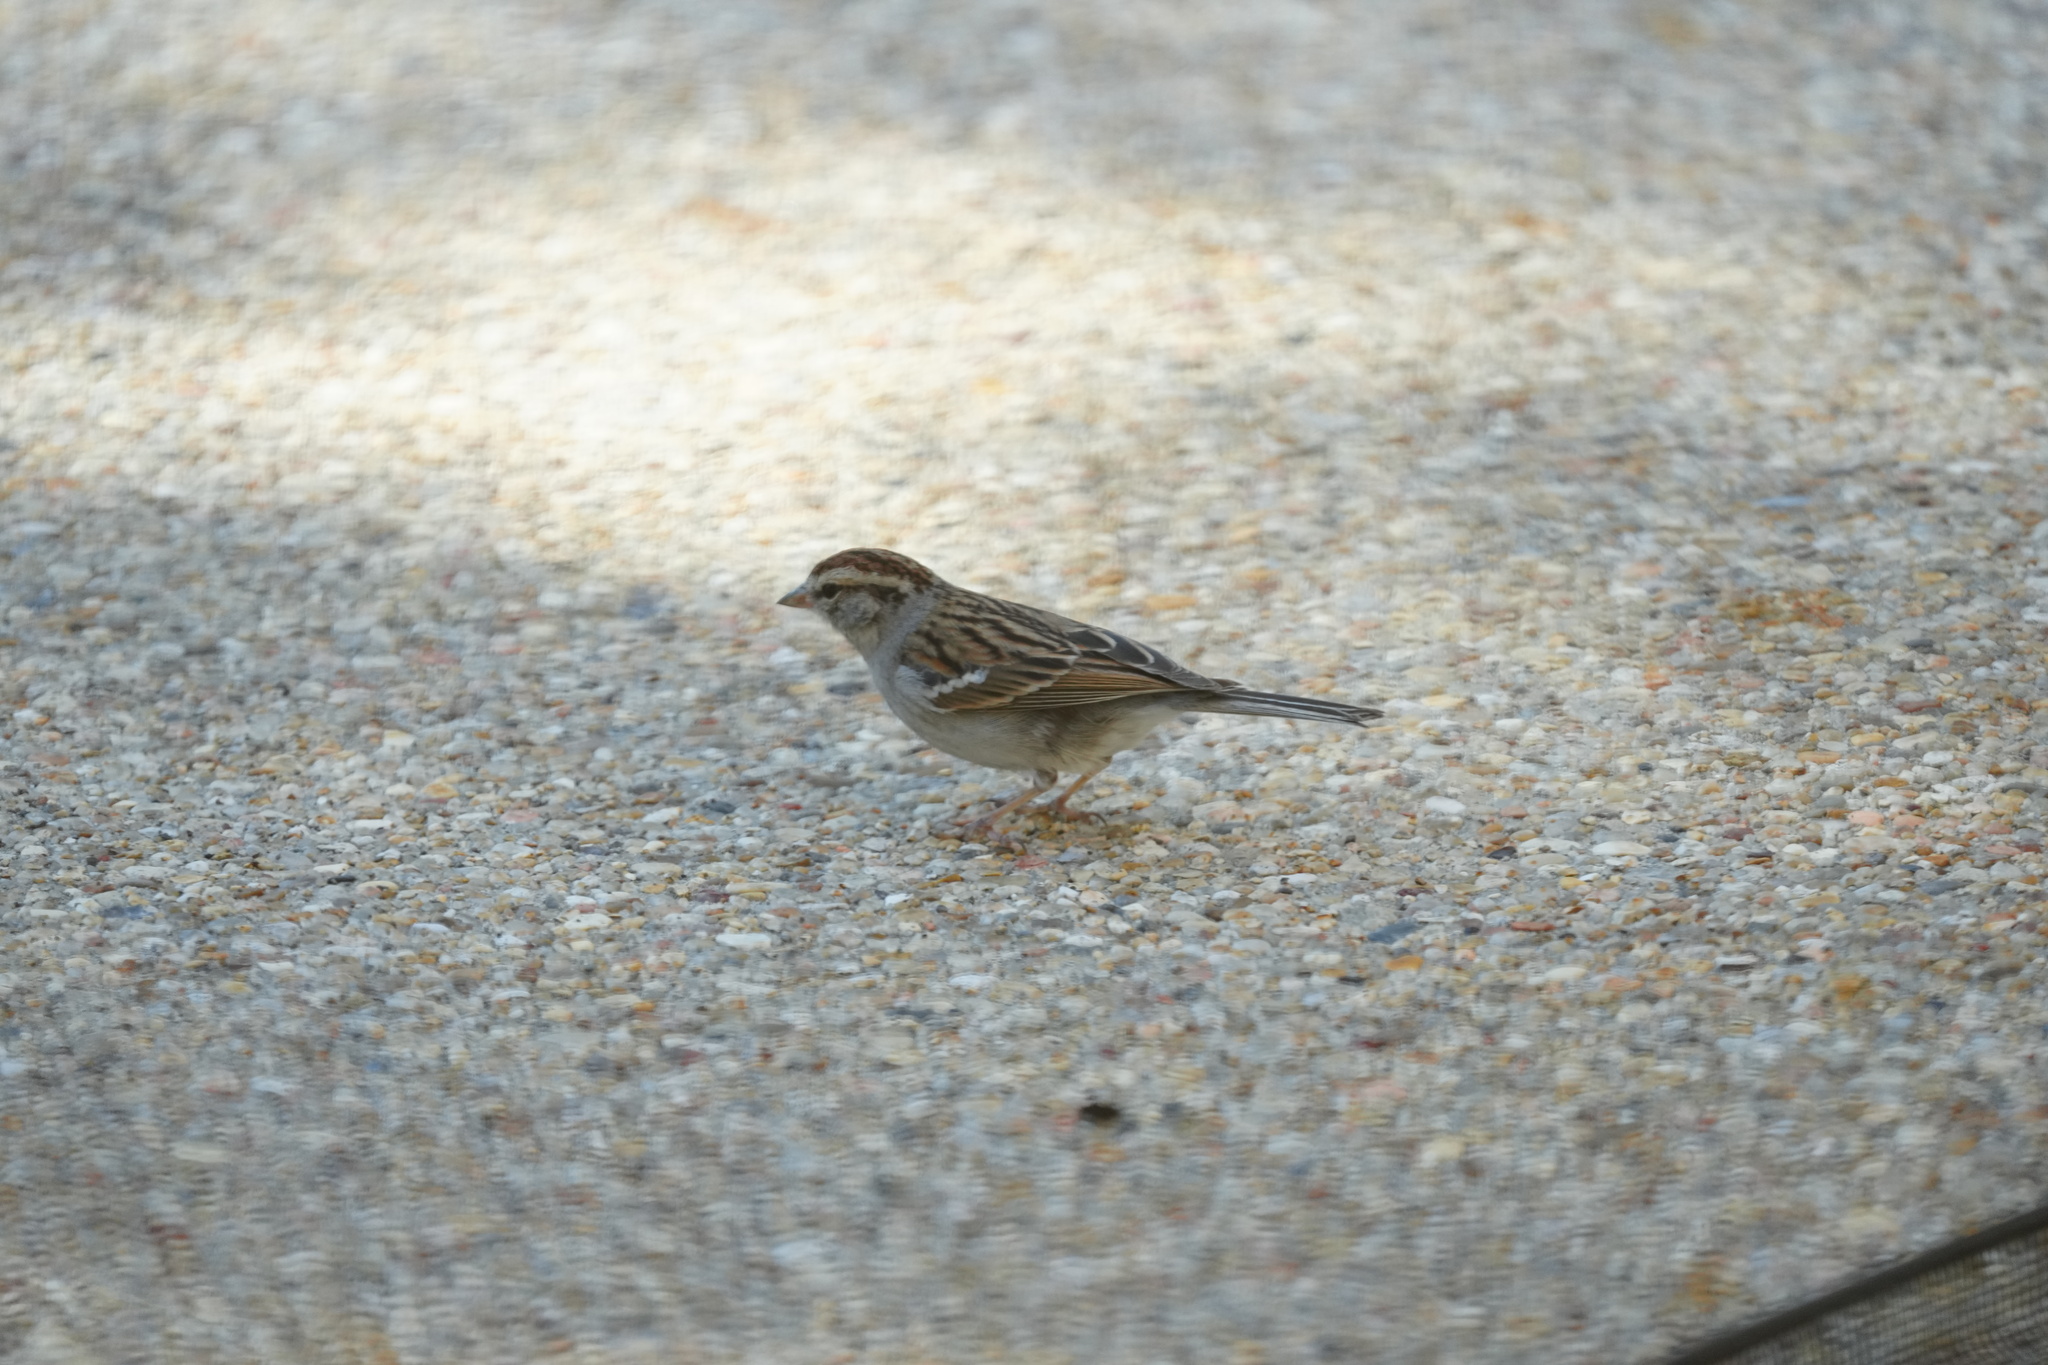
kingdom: Animalia
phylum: Chordata
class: Aves
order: Passeriformes
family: Passerellidae
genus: Spizella
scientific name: Spizella passerina
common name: Chipping sparrow
